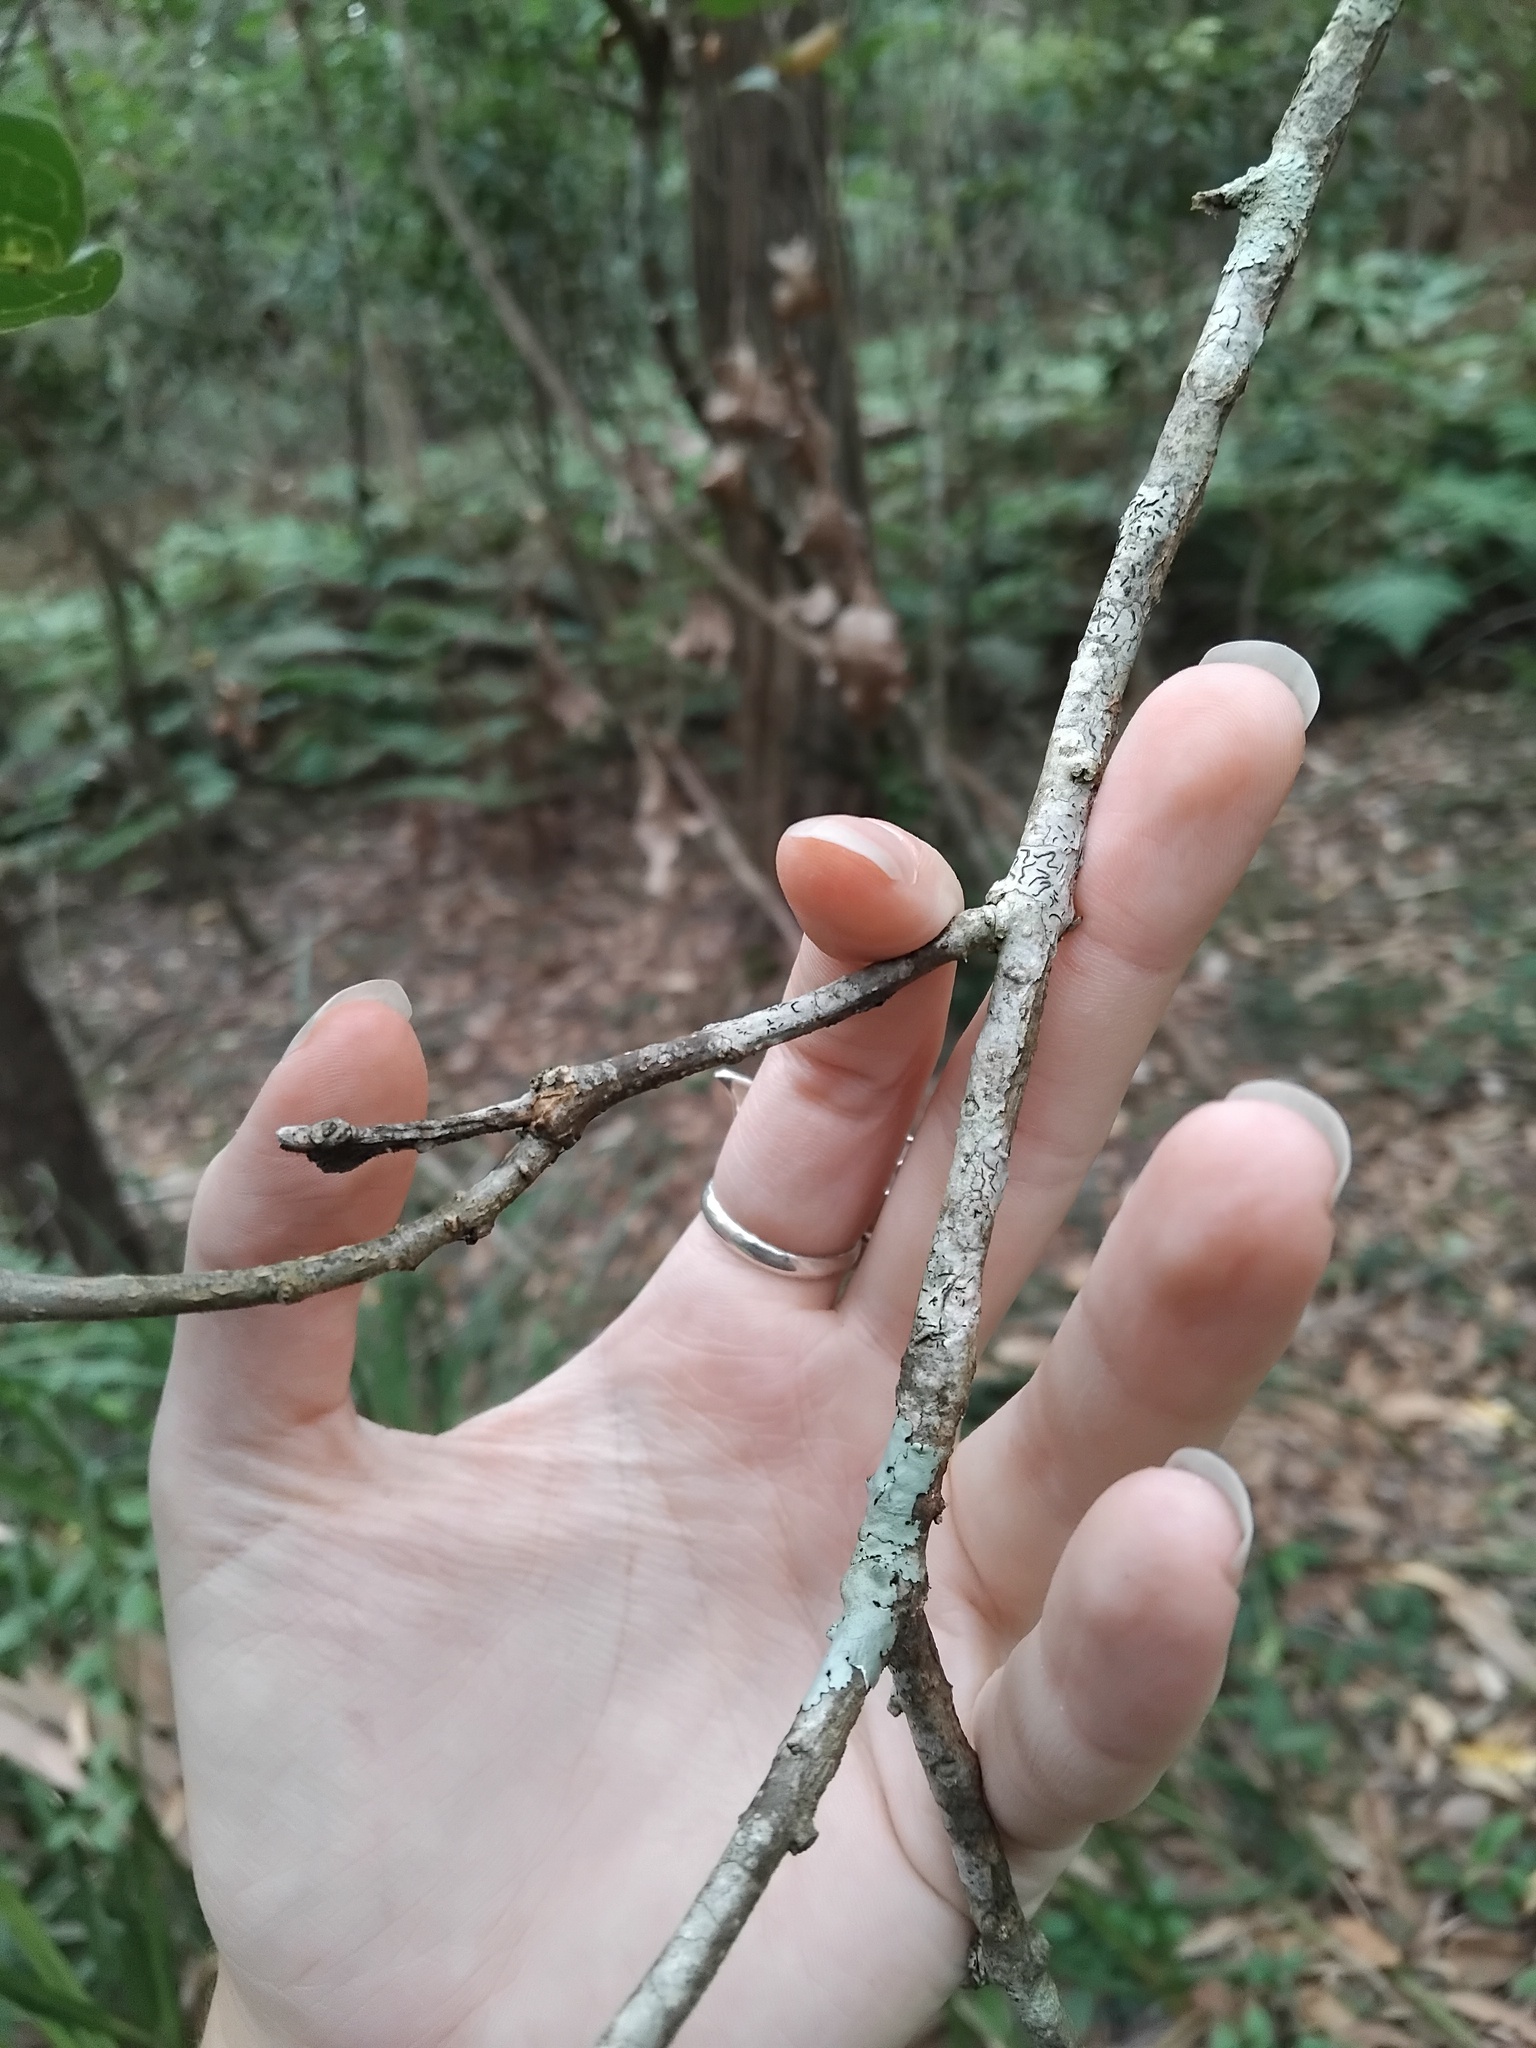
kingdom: Plantae
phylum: Tracheophyta
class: Magnoliopsida
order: Lamiales
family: Lamiaceae
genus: Clerodendrum
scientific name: Clerodendrum tomentosum
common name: Hairy clerodendrum
